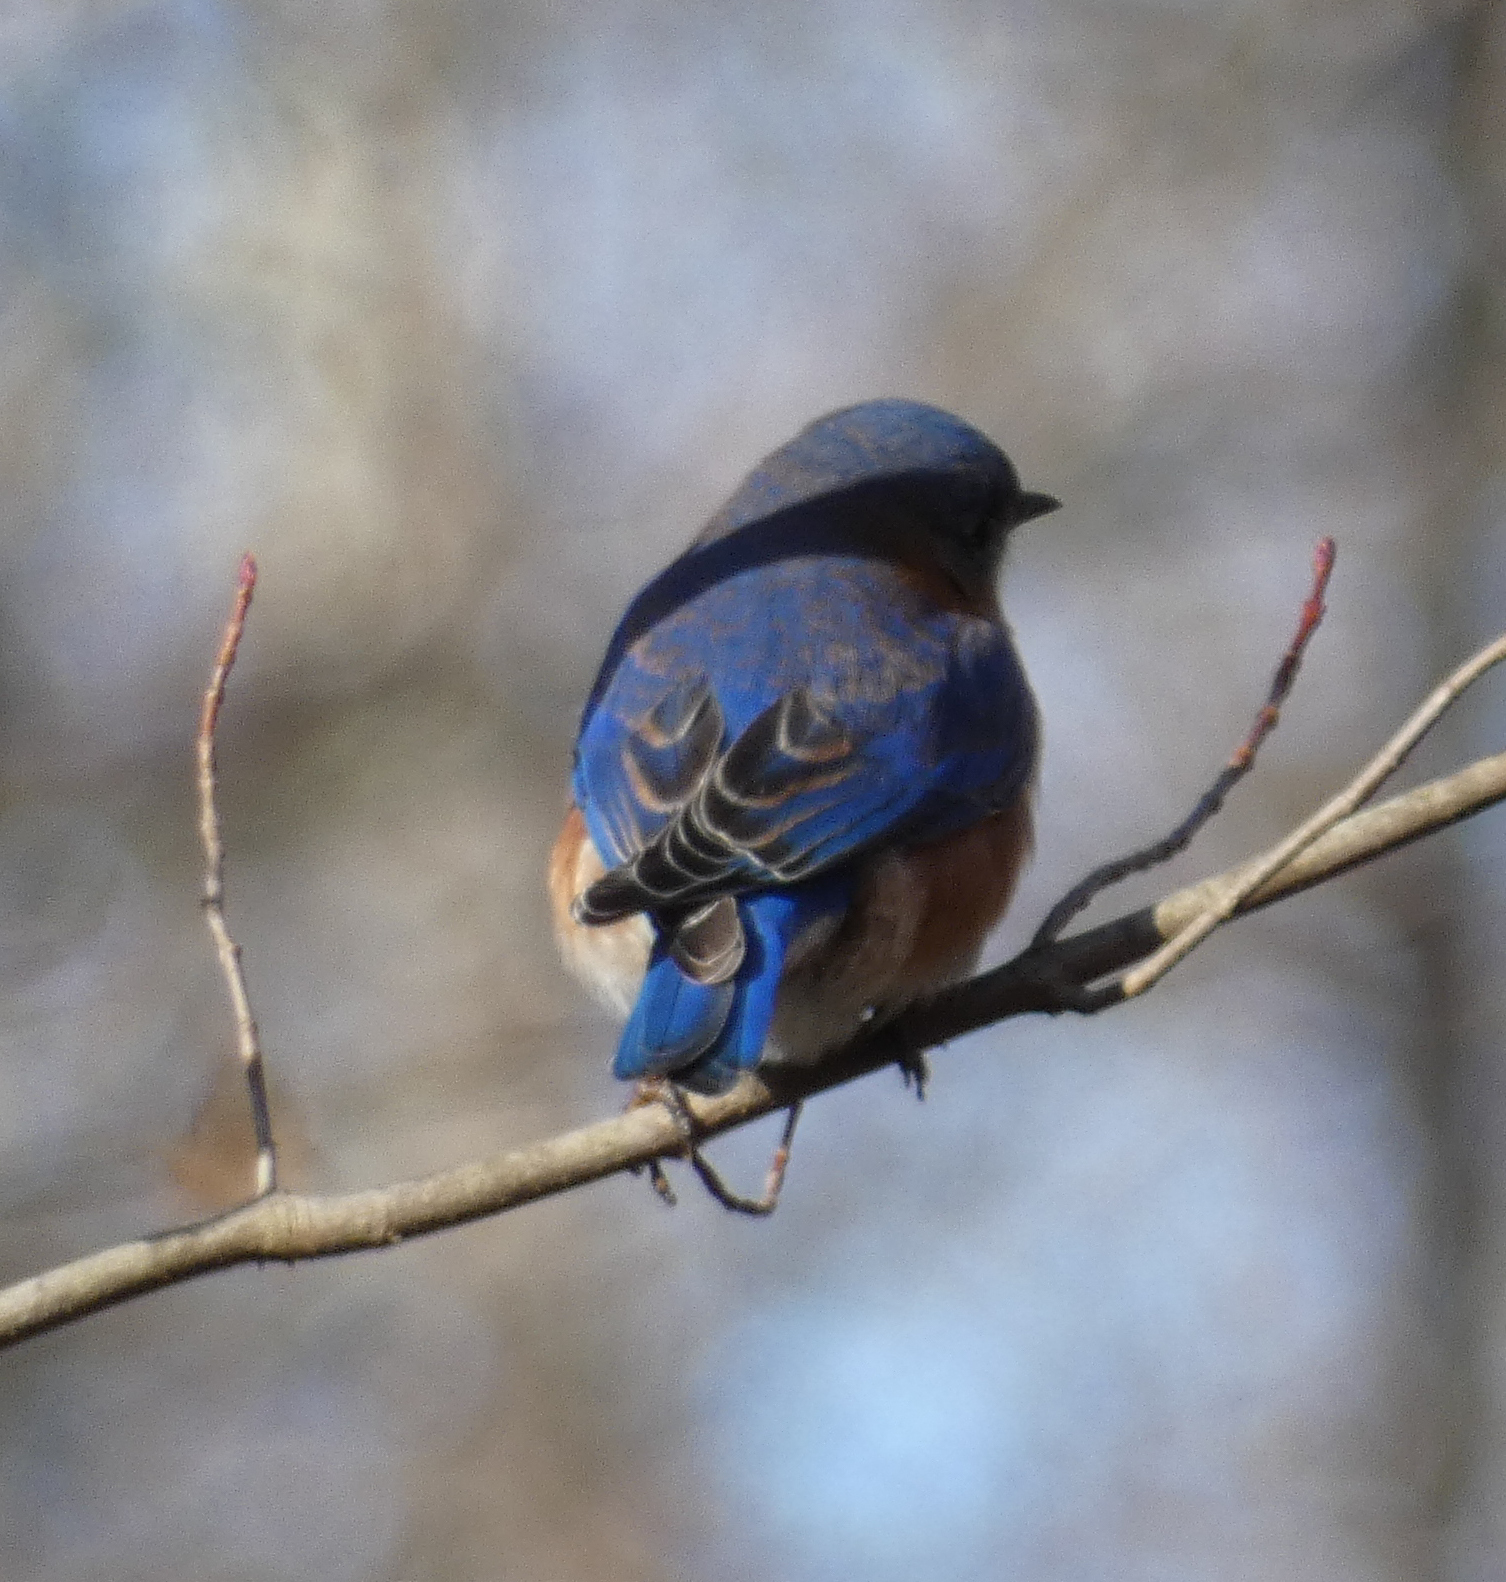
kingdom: Animalia
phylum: Chordata
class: Aves
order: Passeriformes
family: Turdidae
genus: Sialia
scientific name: Sialia sialis
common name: Eastern bluebird
